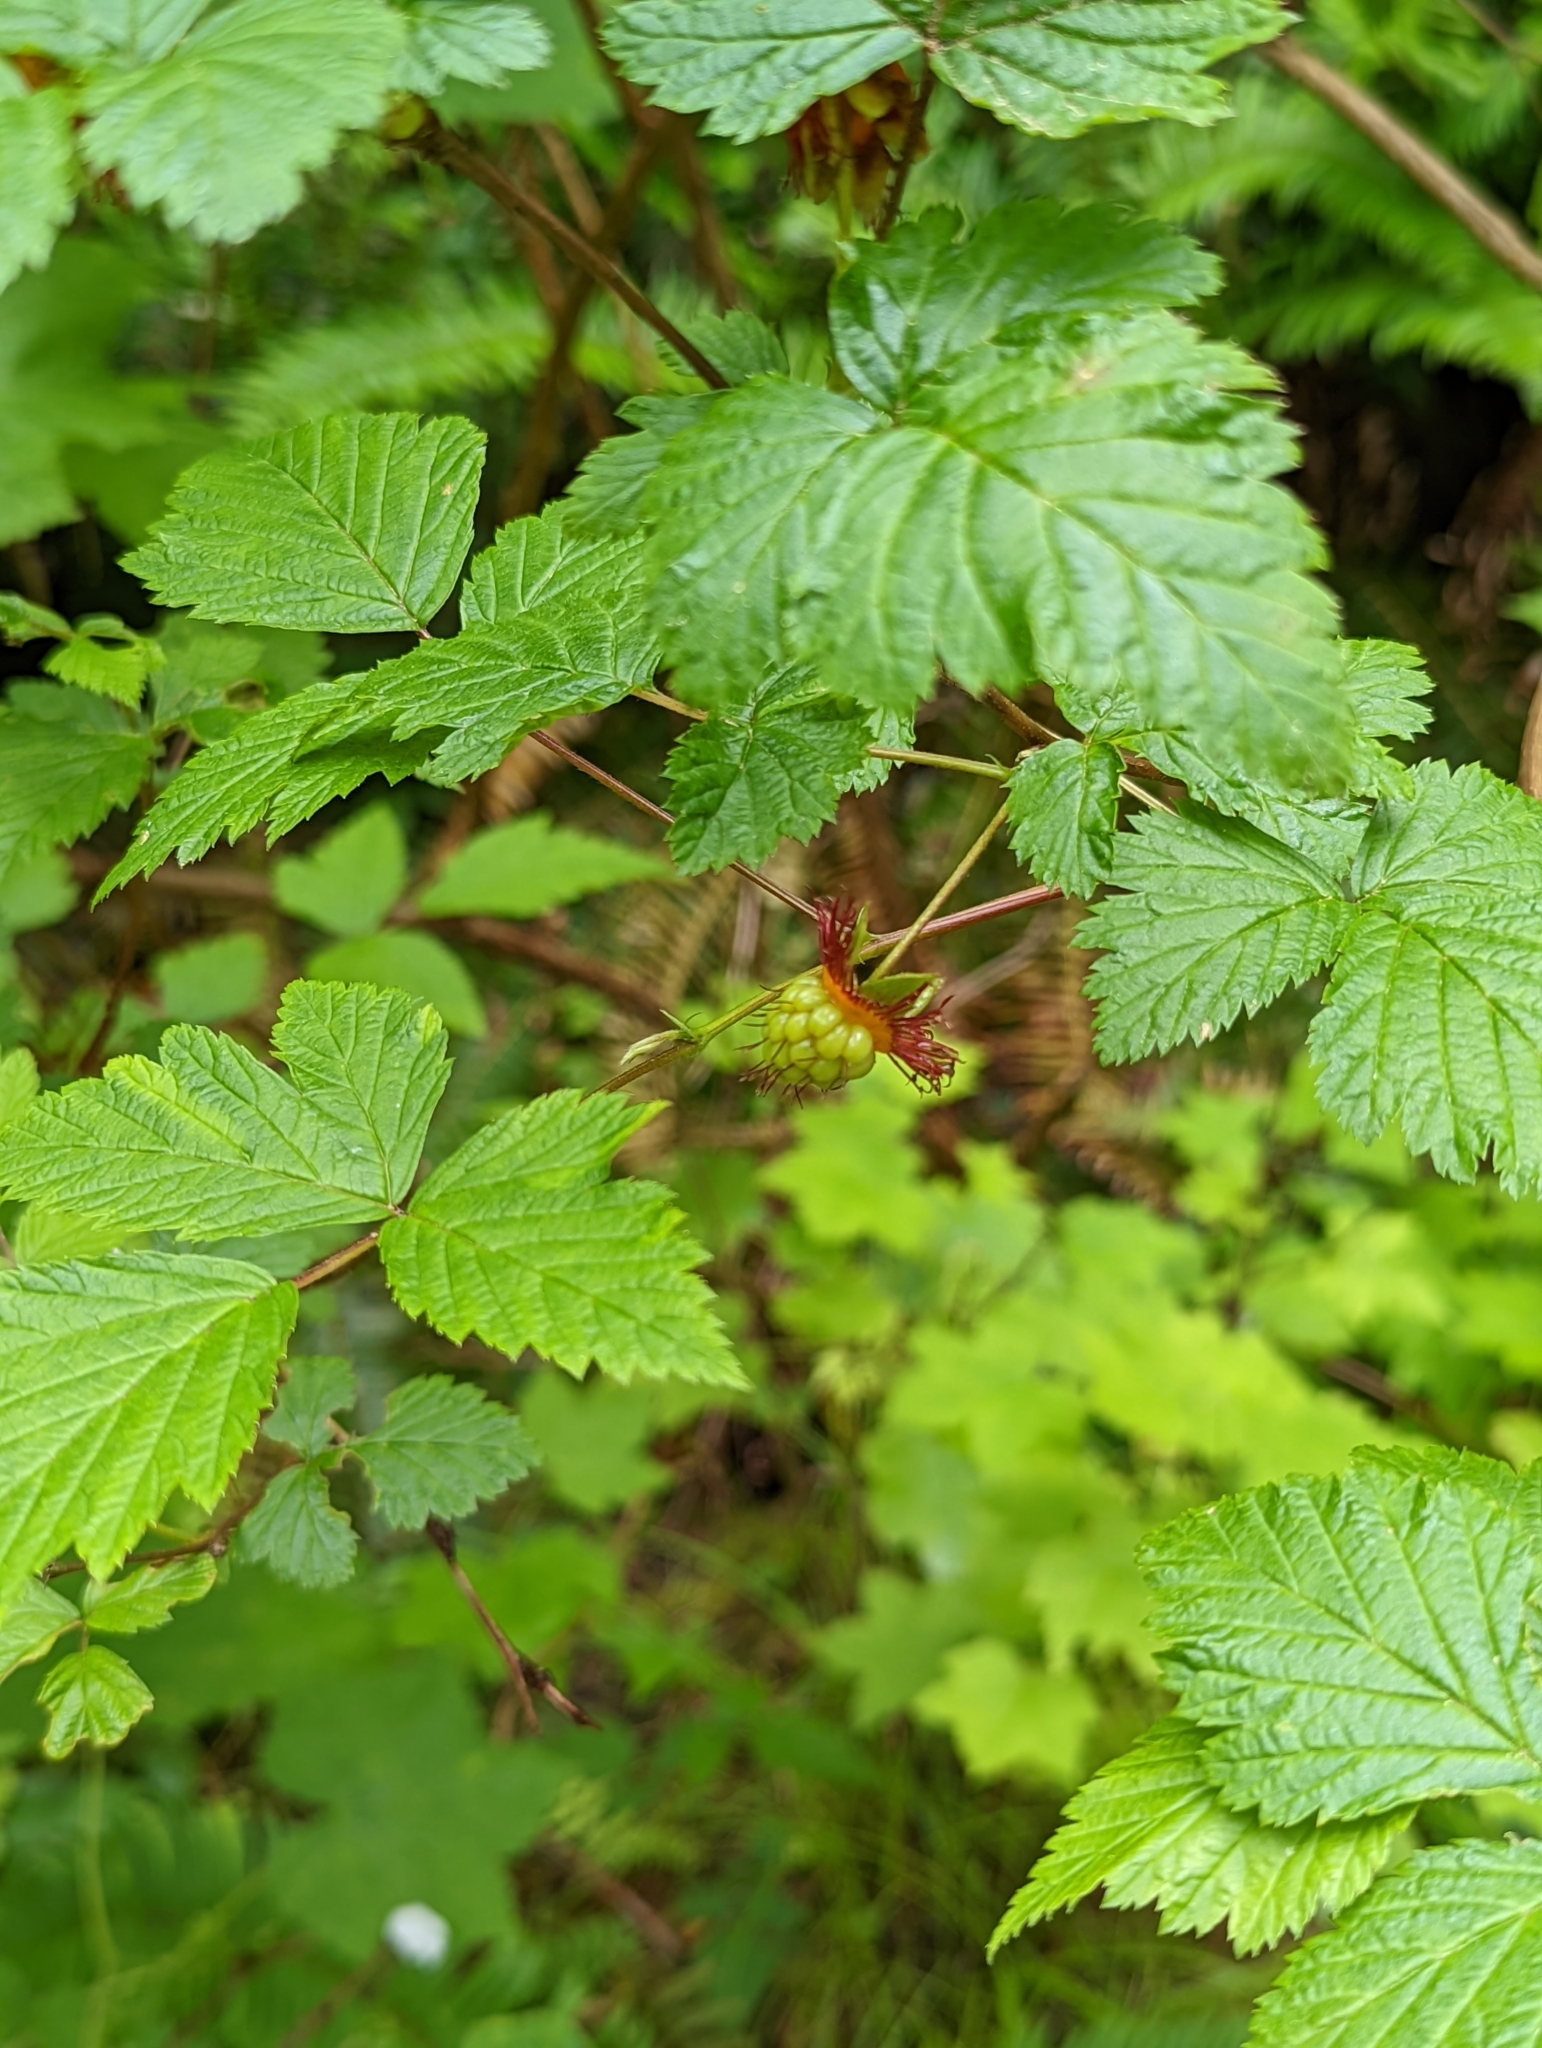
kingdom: Plantae
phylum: Tracheophyta
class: Magnoliopsida
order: Rosales
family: Rosaceae
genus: Rubus
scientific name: Rubus spectabilis
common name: Salmonberry
